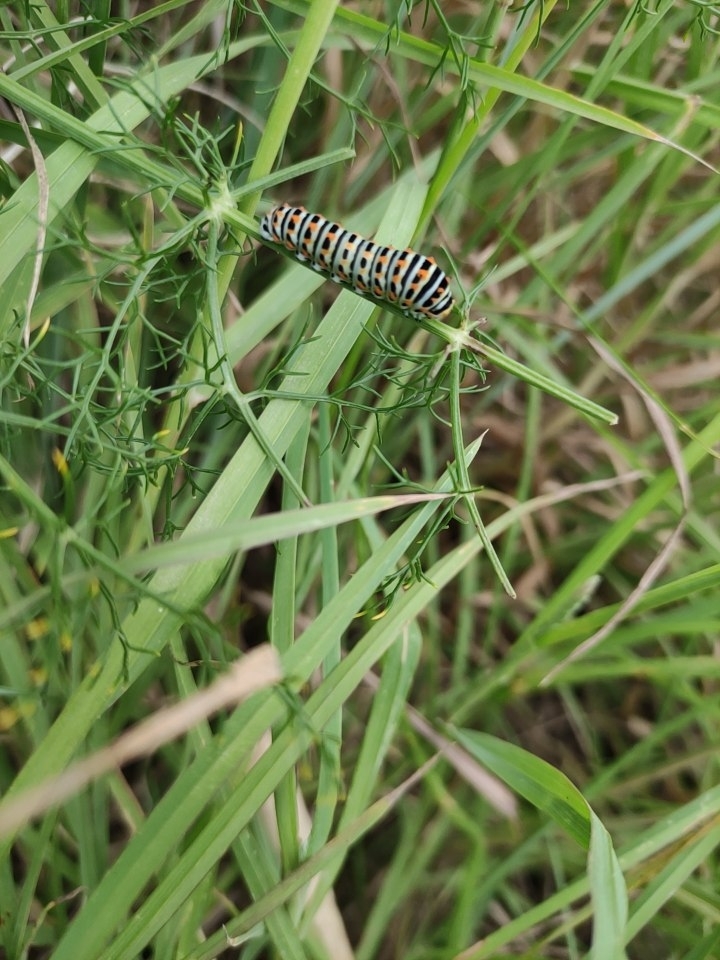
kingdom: Animalia
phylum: Arthropoda
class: Insecta
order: Lepidoptera
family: Papilionidae
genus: Papilio
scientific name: Papilio machaon
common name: Swallowtail
